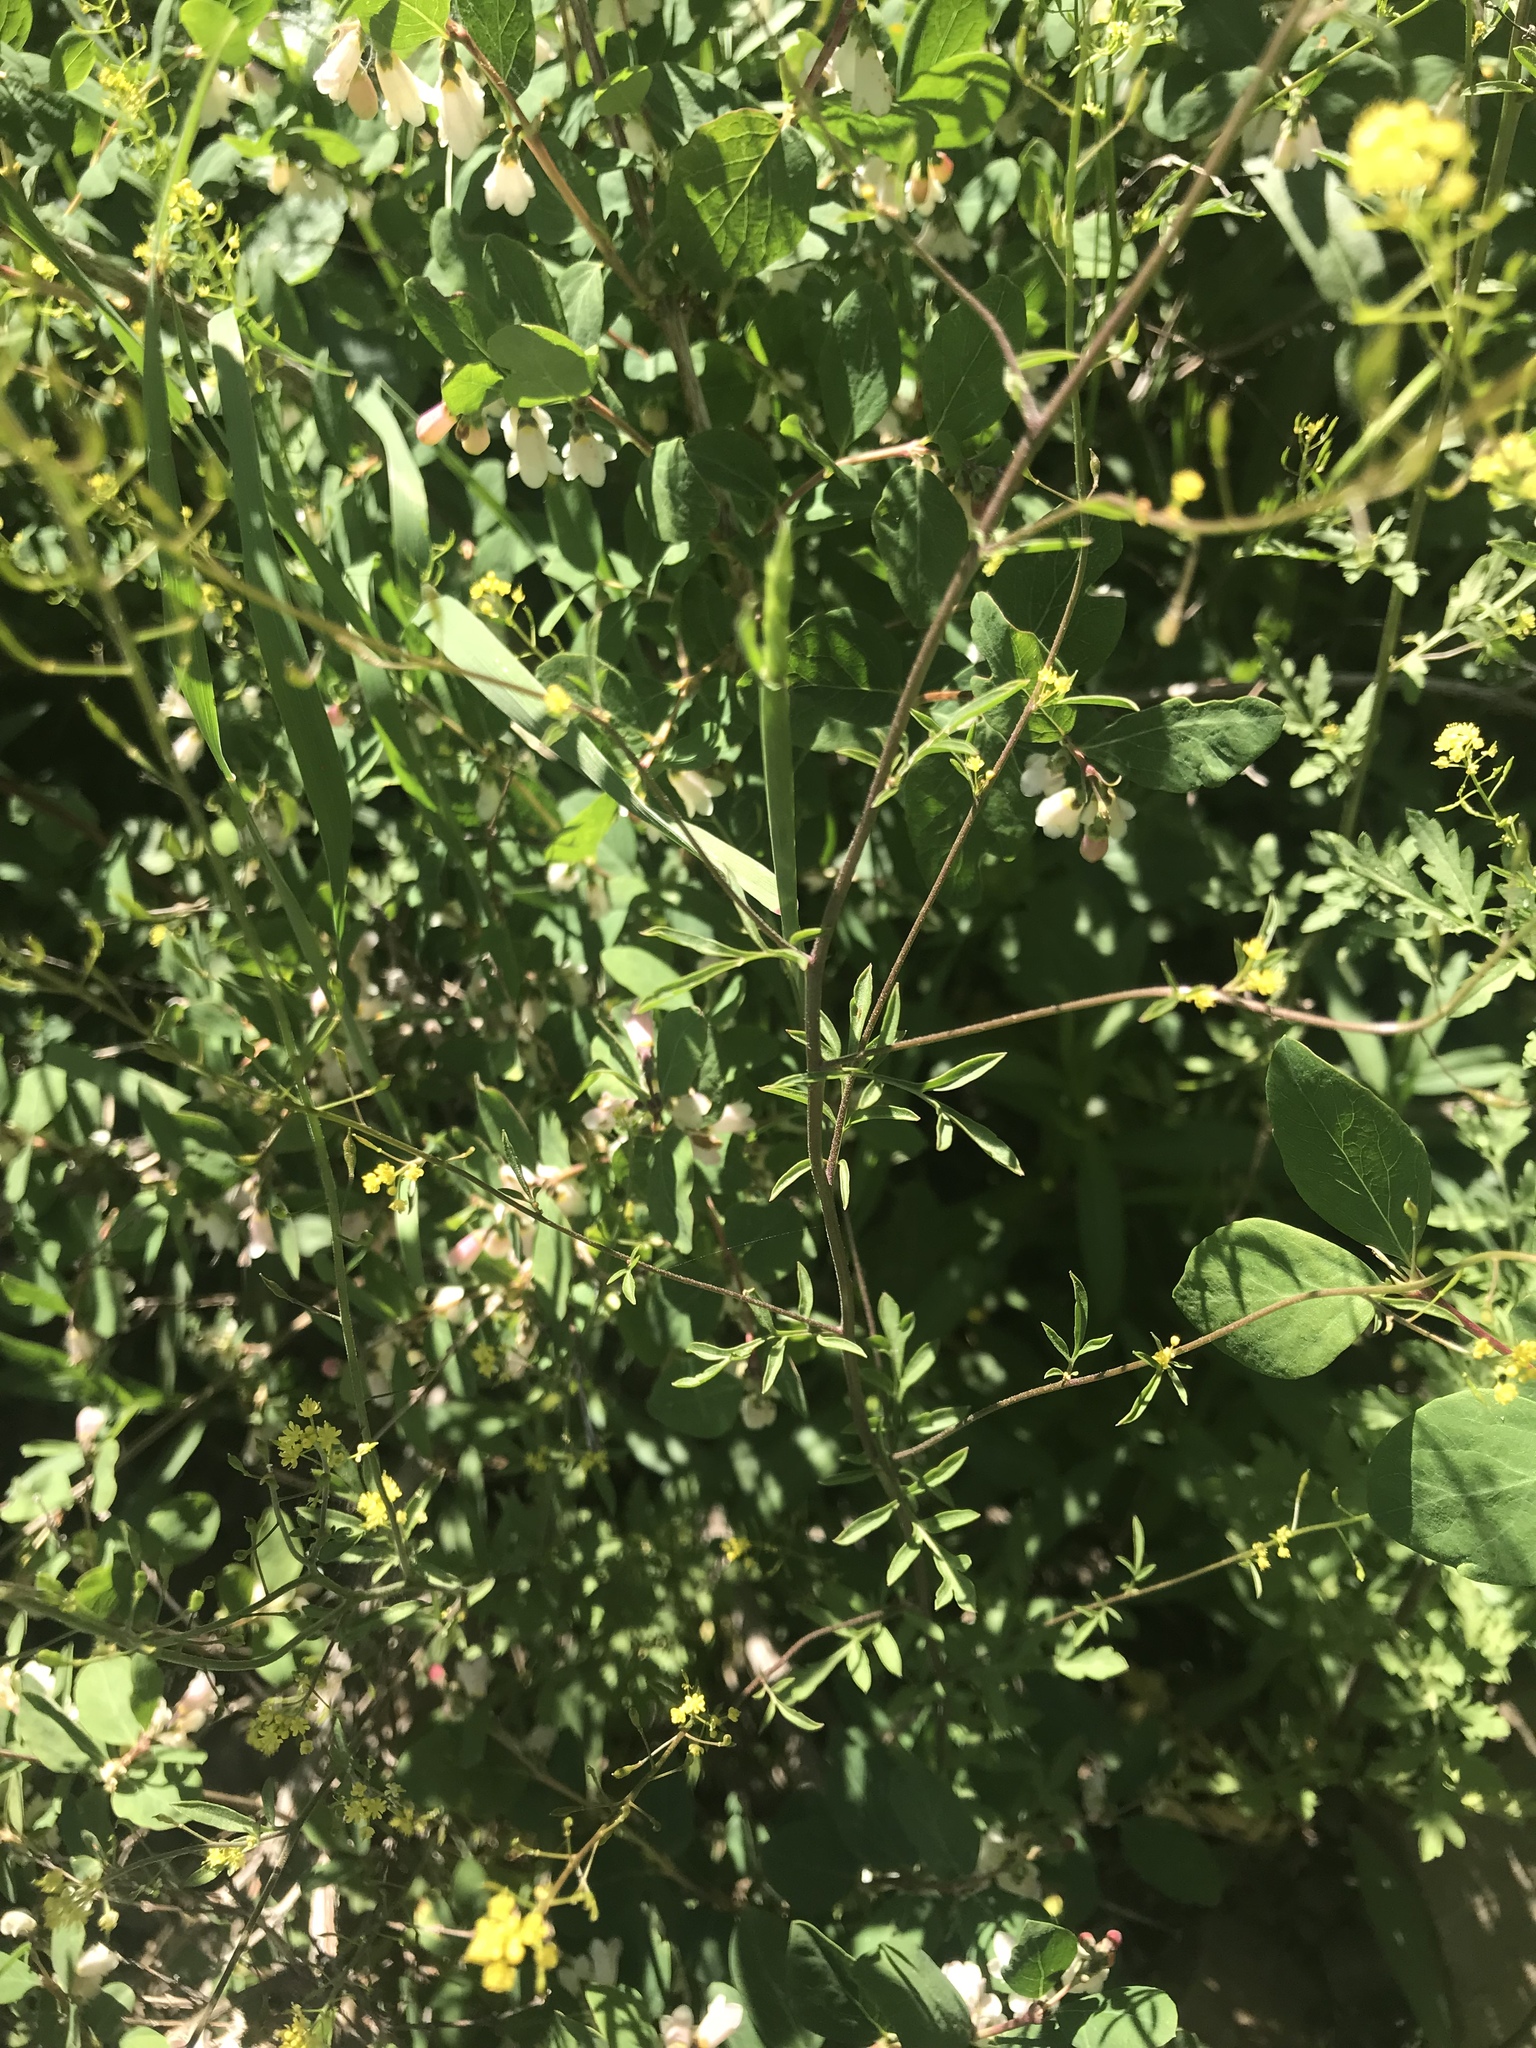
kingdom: Plantae
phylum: Tracheophyta
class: Magnoliopsida
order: Brassicales
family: Brassicaceae
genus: Descurainia
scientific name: Descurainia californica
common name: California tansy mustard
